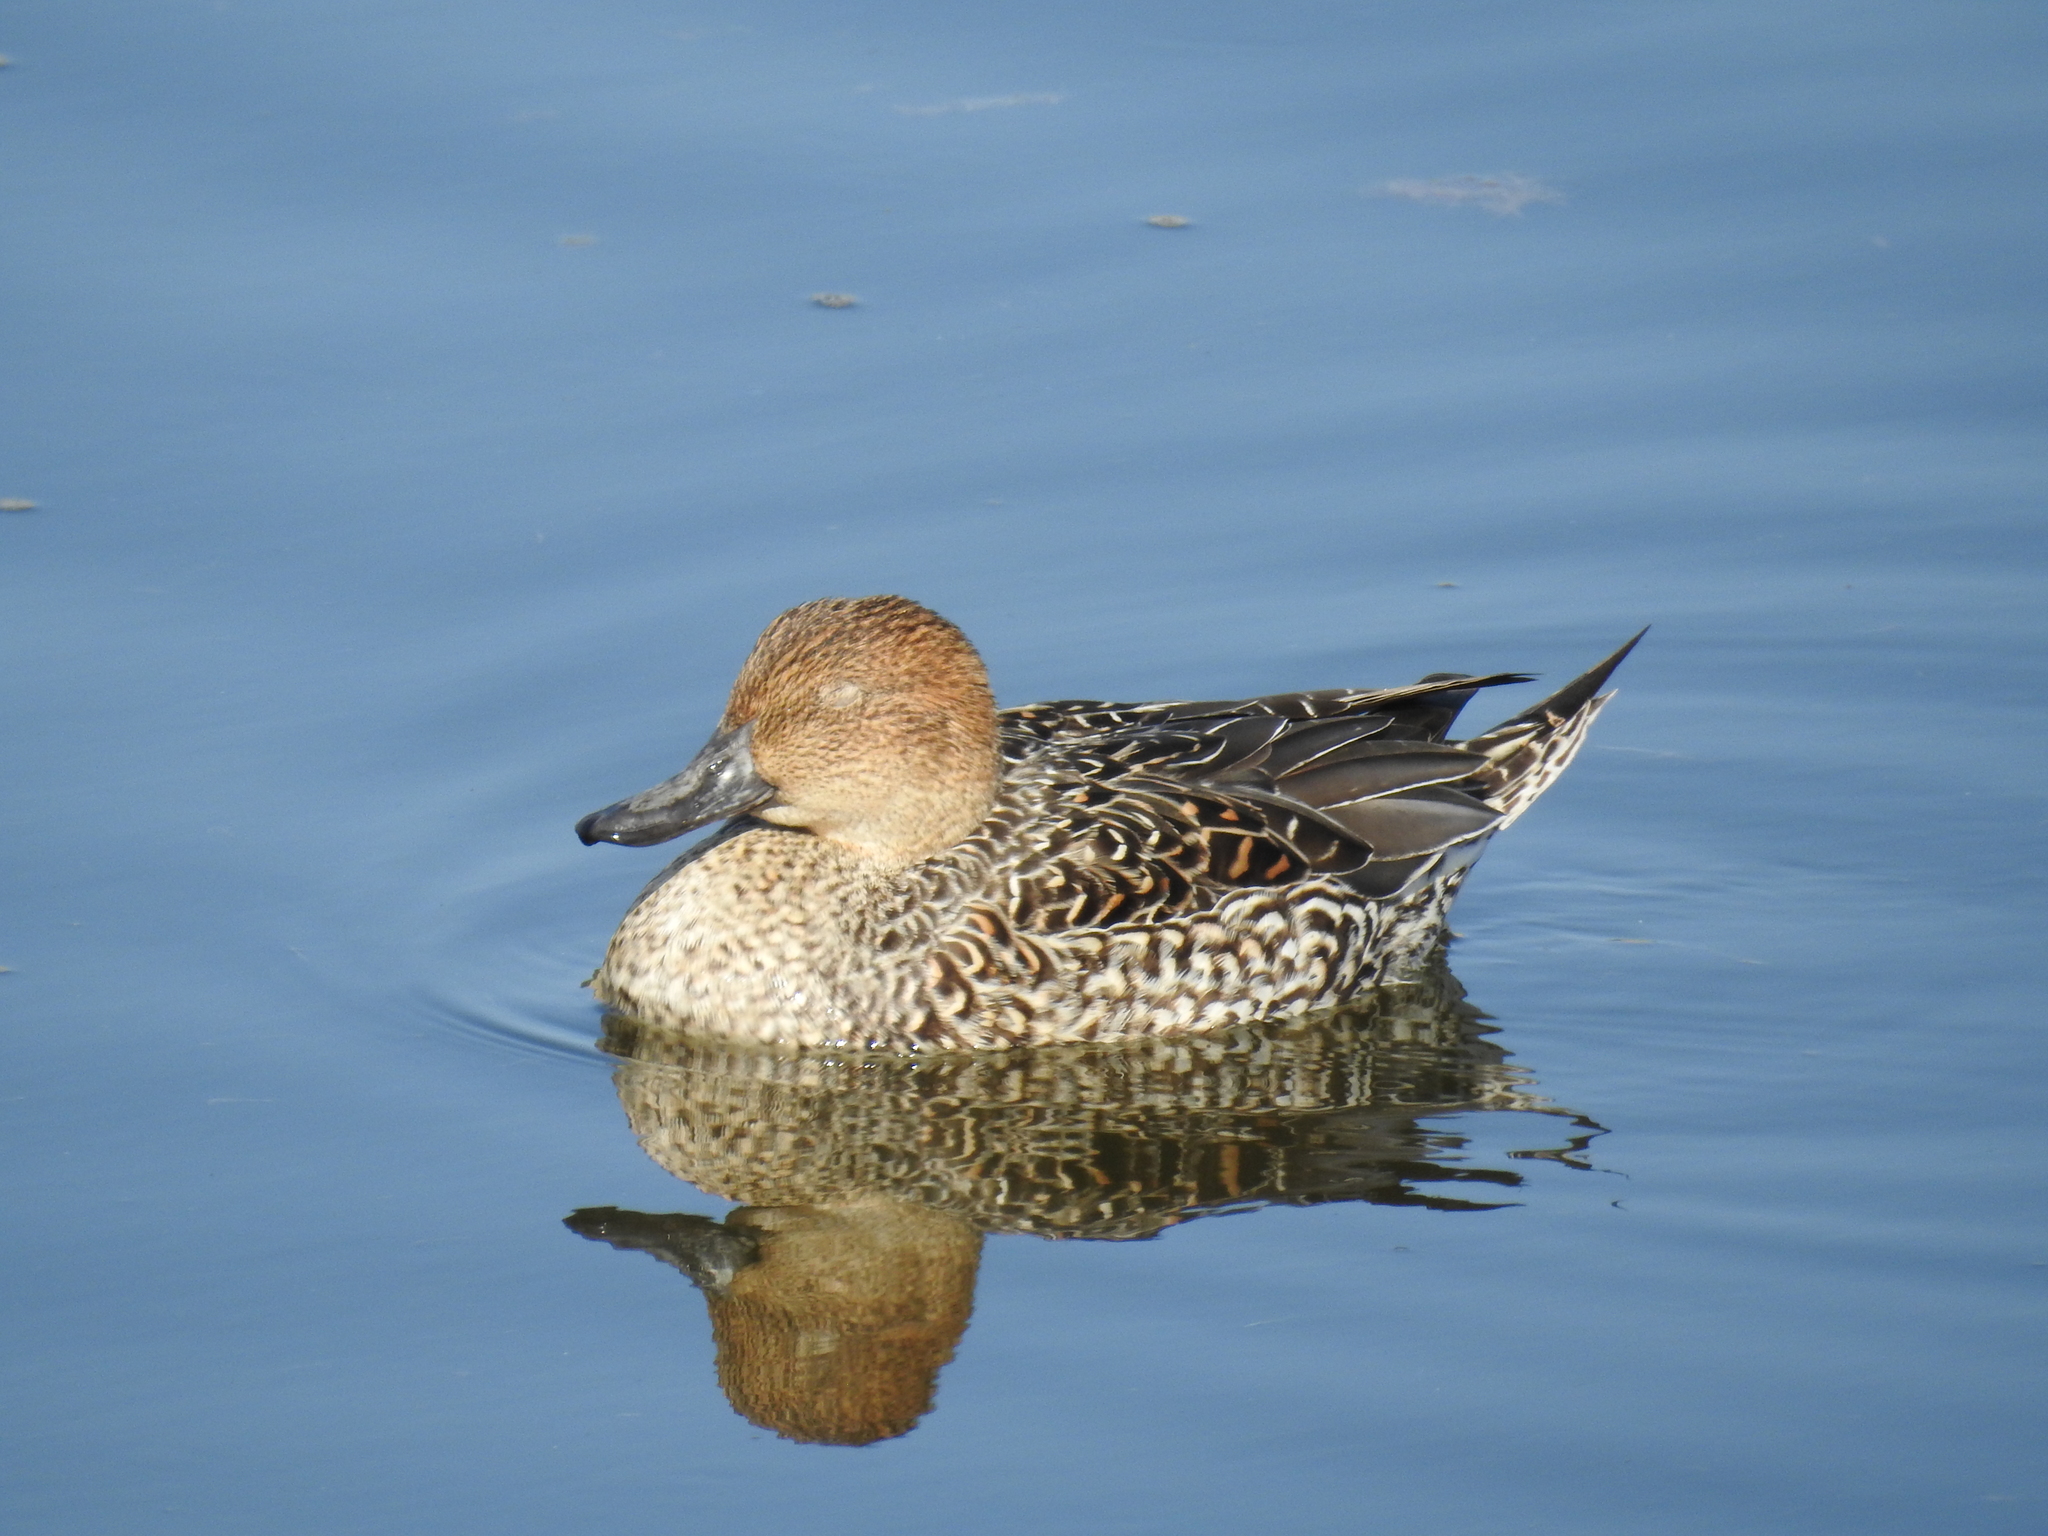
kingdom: Animalia
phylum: Chordata
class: Aves
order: Anseriformes
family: Anatidae
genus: Anas
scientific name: Anas acuta
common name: Northern pintail
